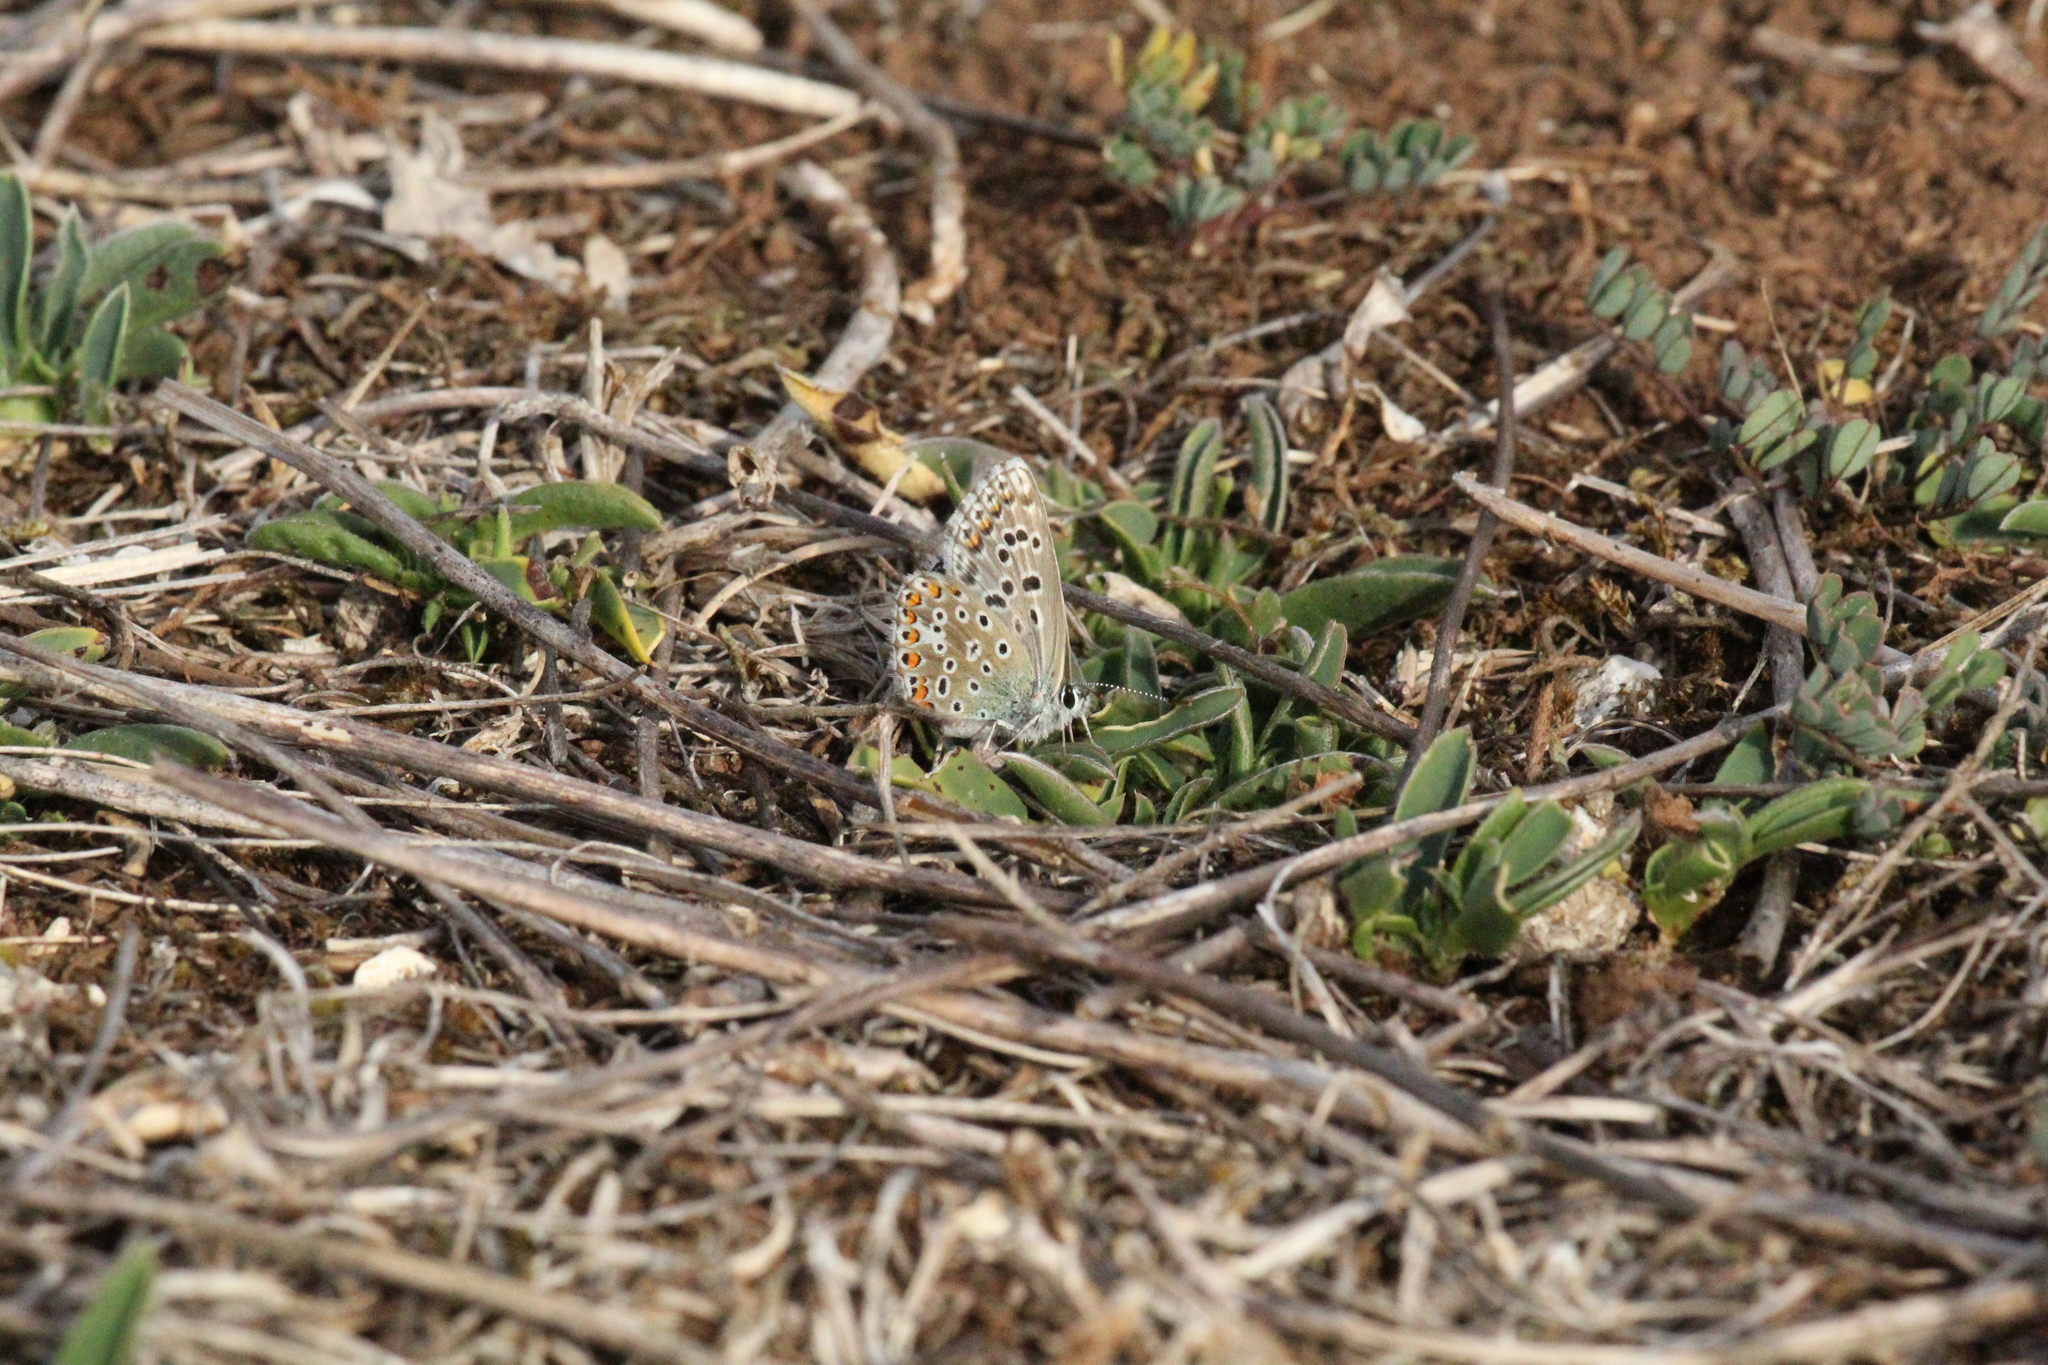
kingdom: Animalia
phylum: Arthropoda
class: Insecta
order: Lepidoptera
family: Lycaenidae
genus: Aricia
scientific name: Aricia agestis
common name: Brown argus
